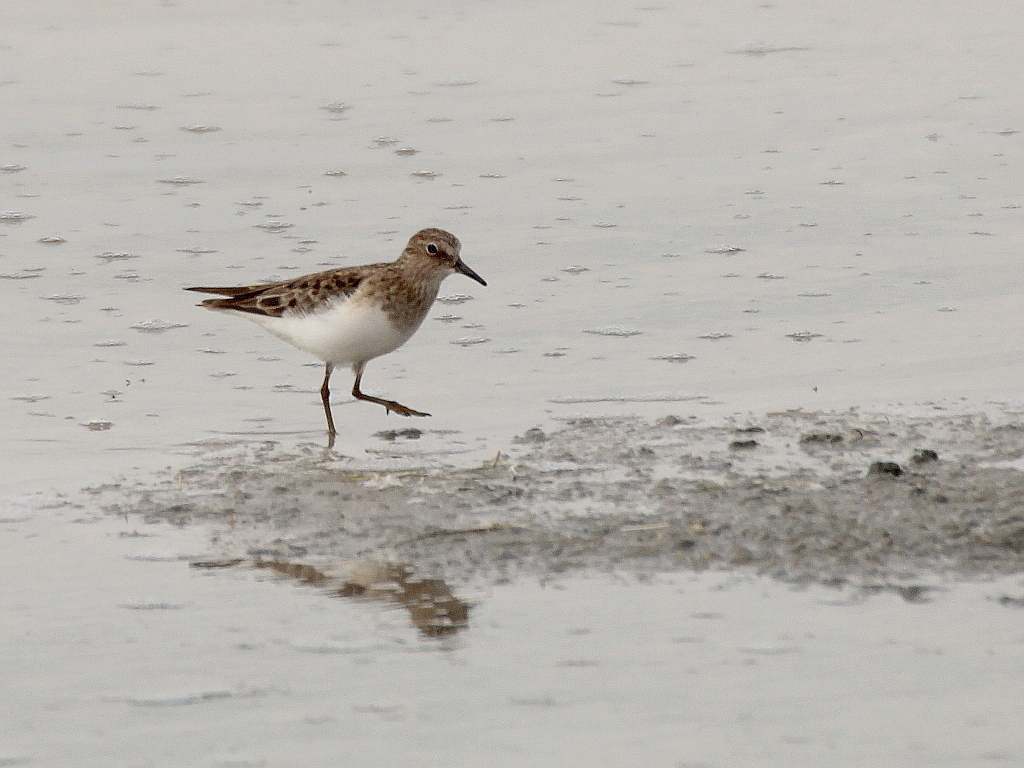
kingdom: Animalia
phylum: Chordata
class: Aves
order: Charadriiformes
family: Scolopacidae
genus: Calidris
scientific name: Calidris temminckii
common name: Temminck's stint
